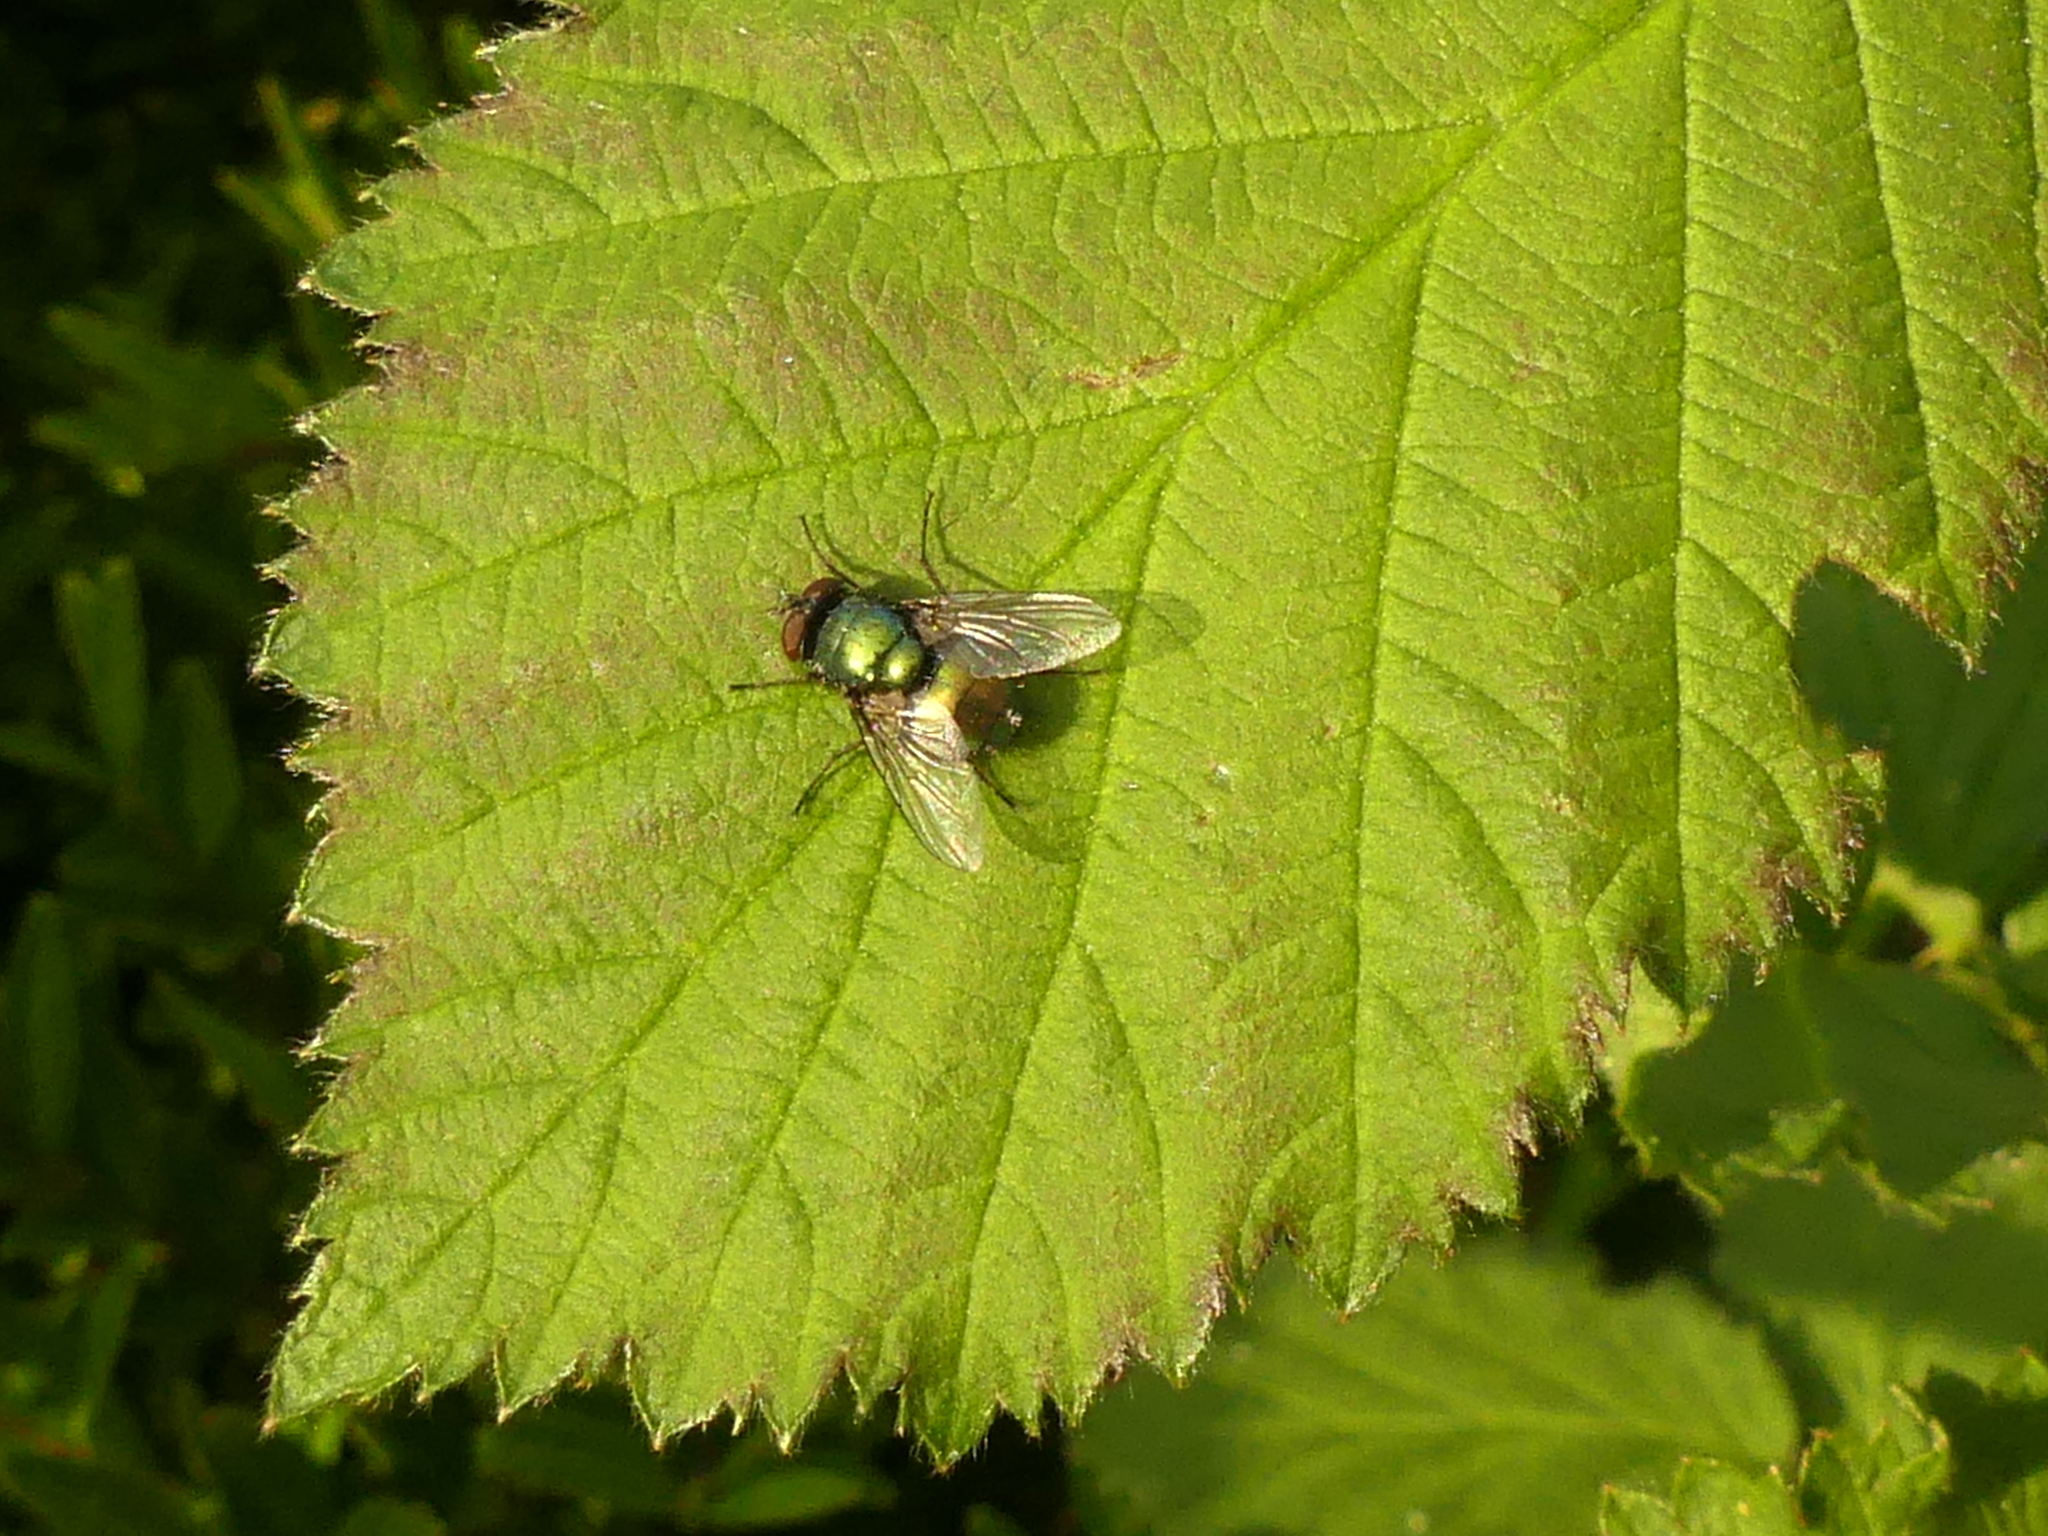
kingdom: Animalia
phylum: Arthropoda
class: Insecta
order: Diptera
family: Calliphoridae
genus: Lucilia
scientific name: Lucilia
